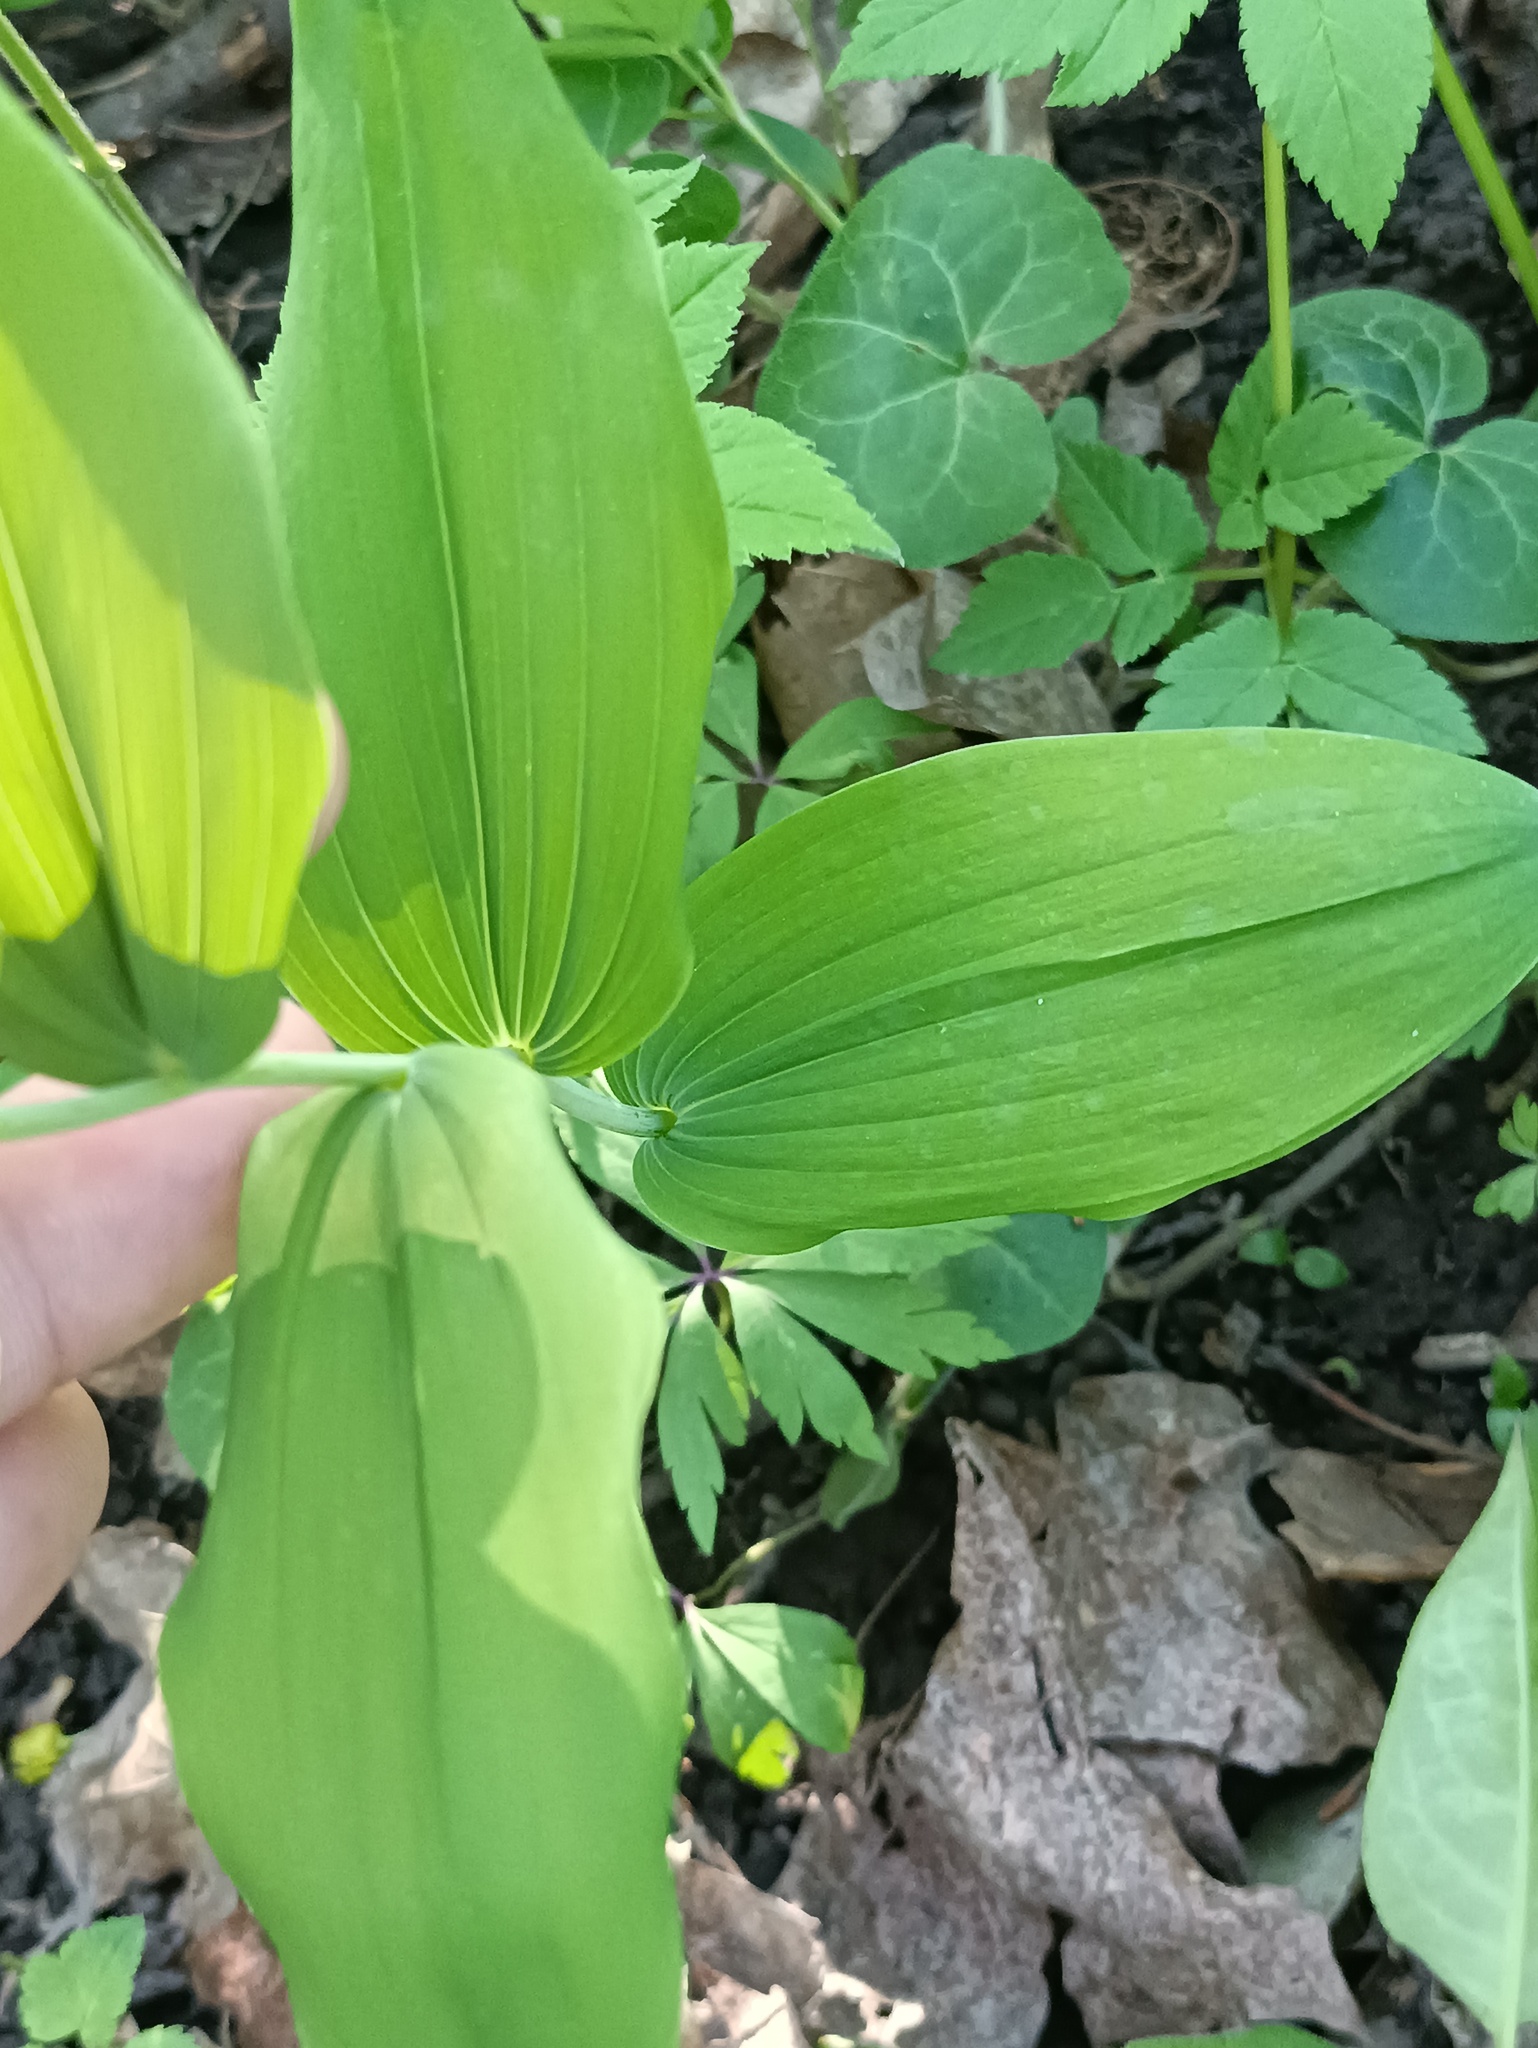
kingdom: Plantae
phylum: Tracheophyta
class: Liliopsida
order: Asparagales
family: Asparagaceae
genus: Polygonatum
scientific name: Polygonatum multiflorum
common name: Solomon's-seal
